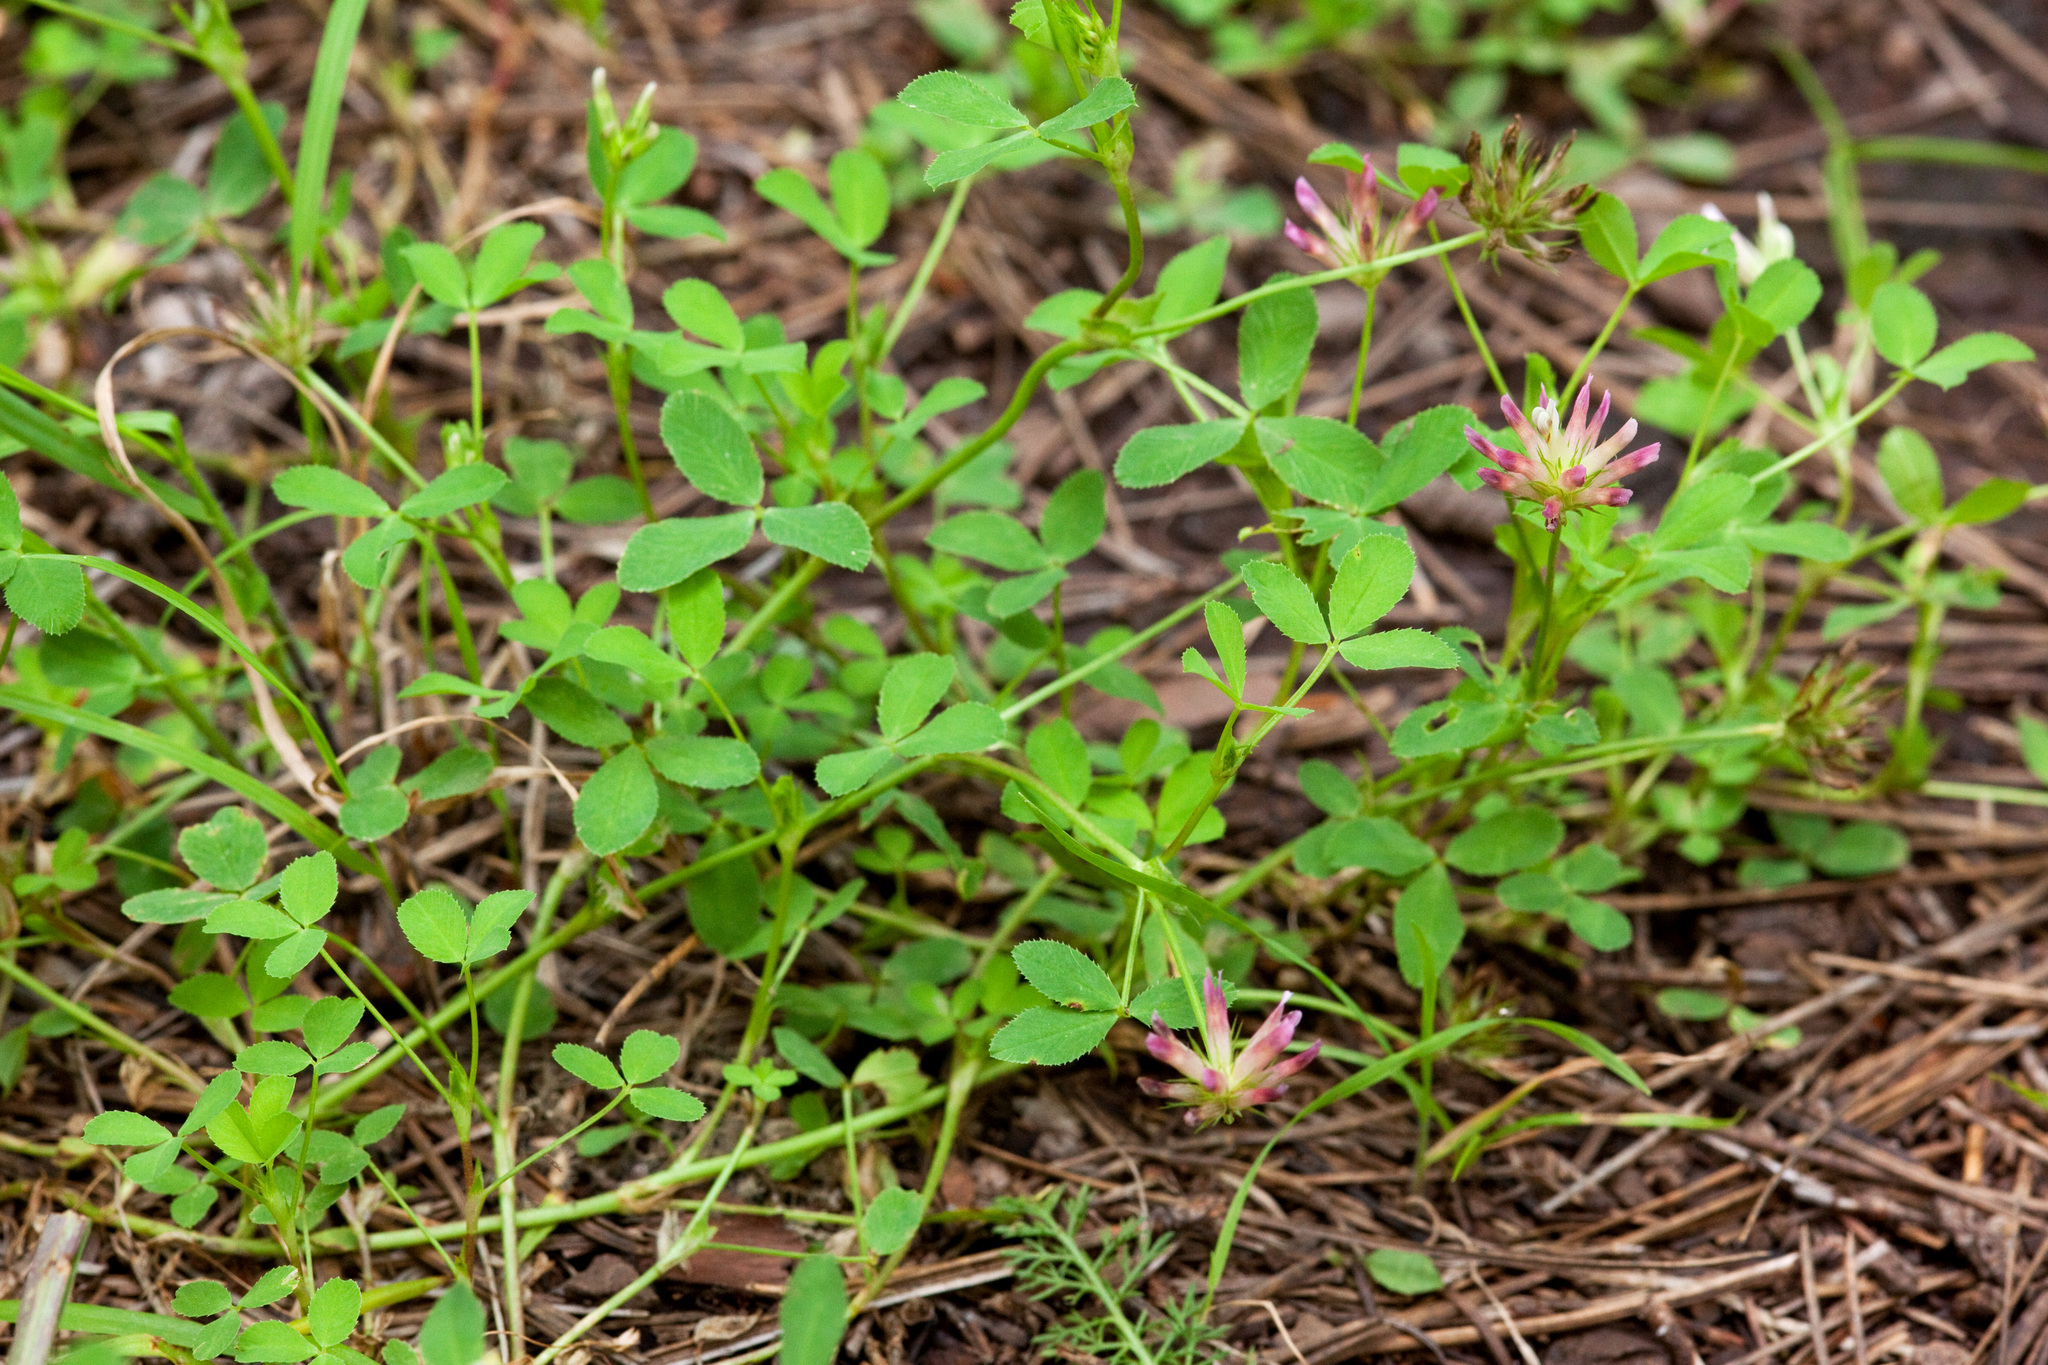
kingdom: Plantae
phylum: Tracheophyta
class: Magnoliopsida
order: Fabales
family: Fabaceae
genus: Trifolium
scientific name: Trifolium wormskioldii
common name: Springbank clover
